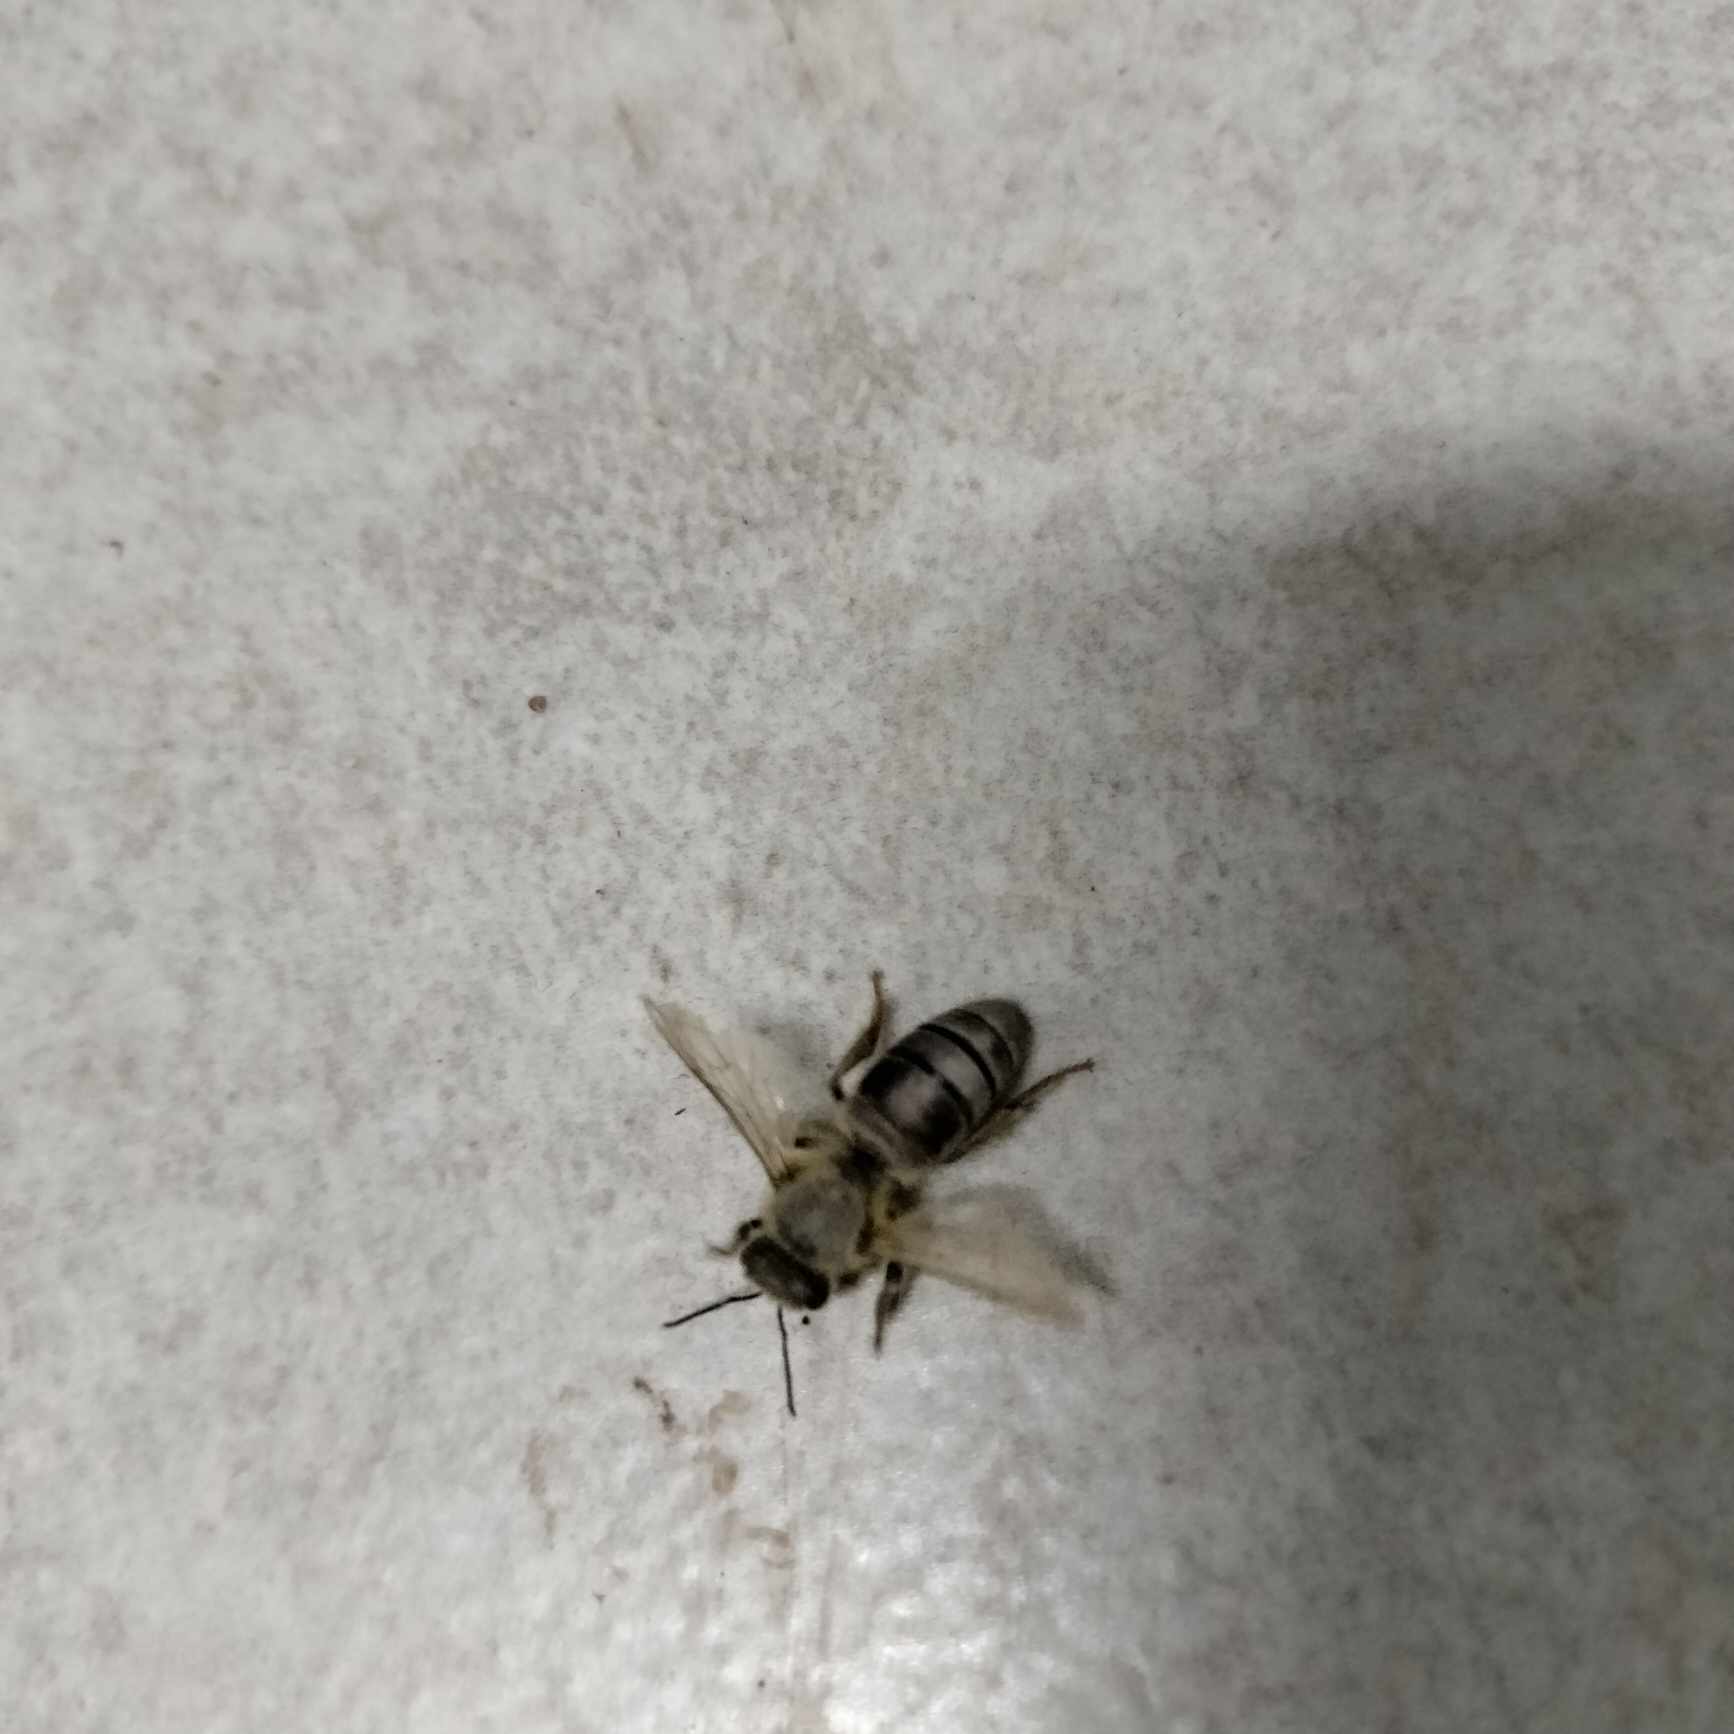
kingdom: Animalia
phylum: Arthropoda
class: Insecta
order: Hymenoptera
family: Apidae
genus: Apis
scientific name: Apis mellifera
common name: Honey bee
